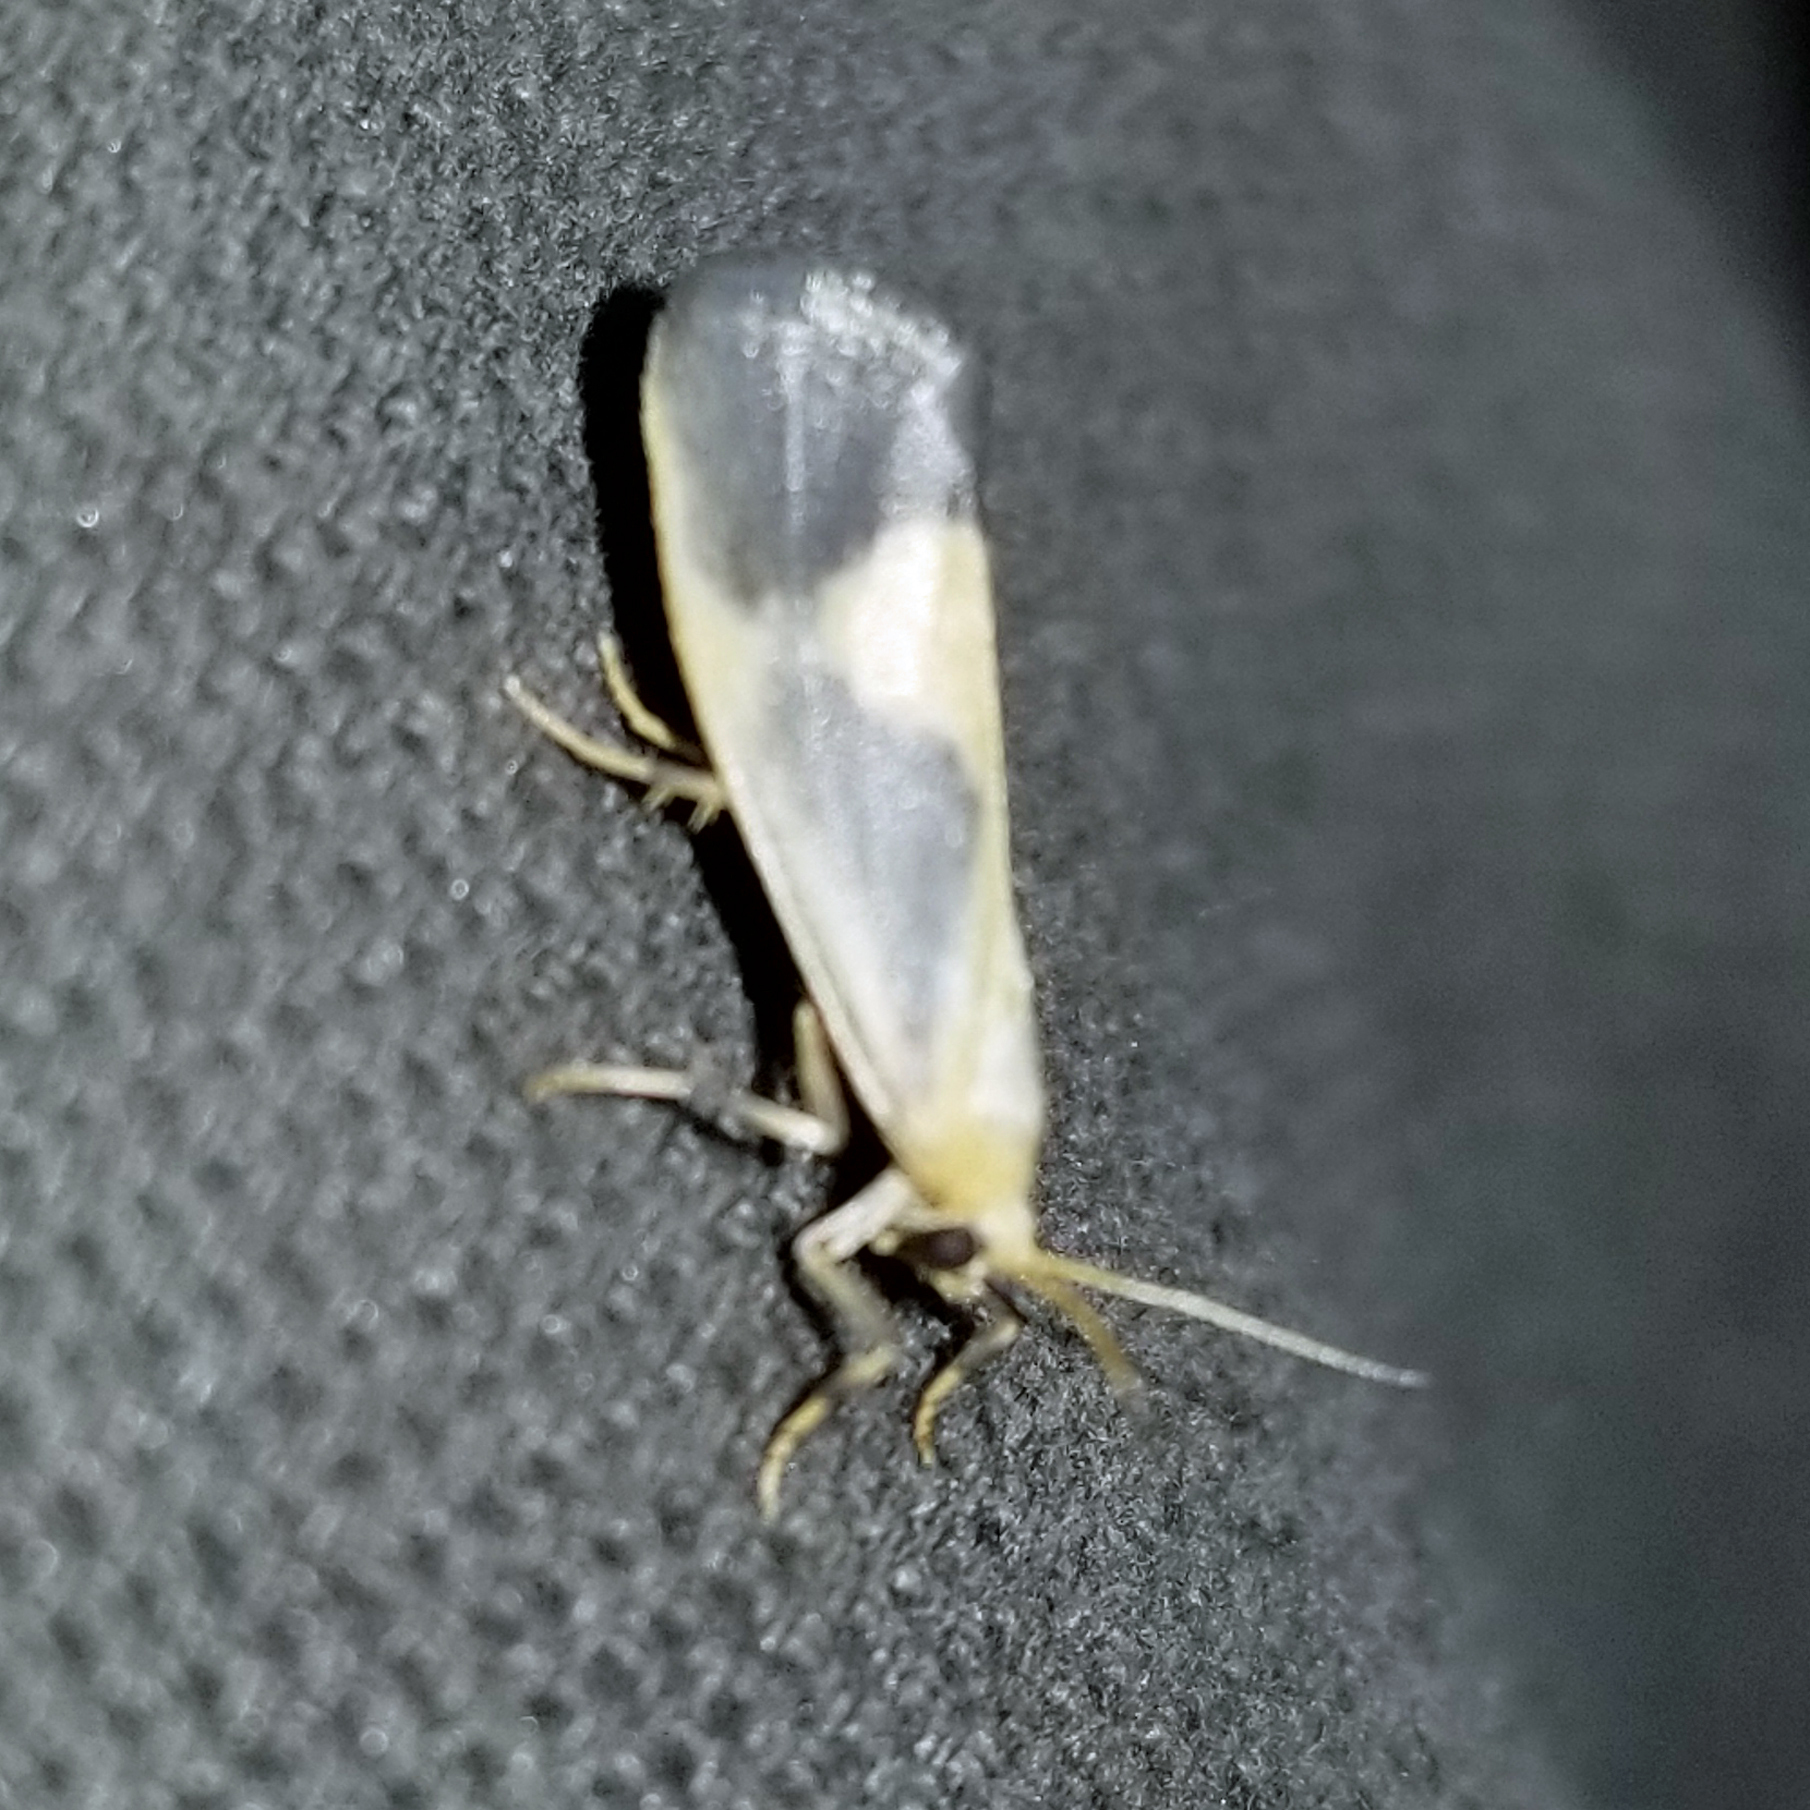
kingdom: Animalia
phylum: Arthropoda
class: Insecta
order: Lepidoptera
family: Erebidae
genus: Cisthene
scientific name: Cisthene plumbea
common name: Lead colored lichen moth
